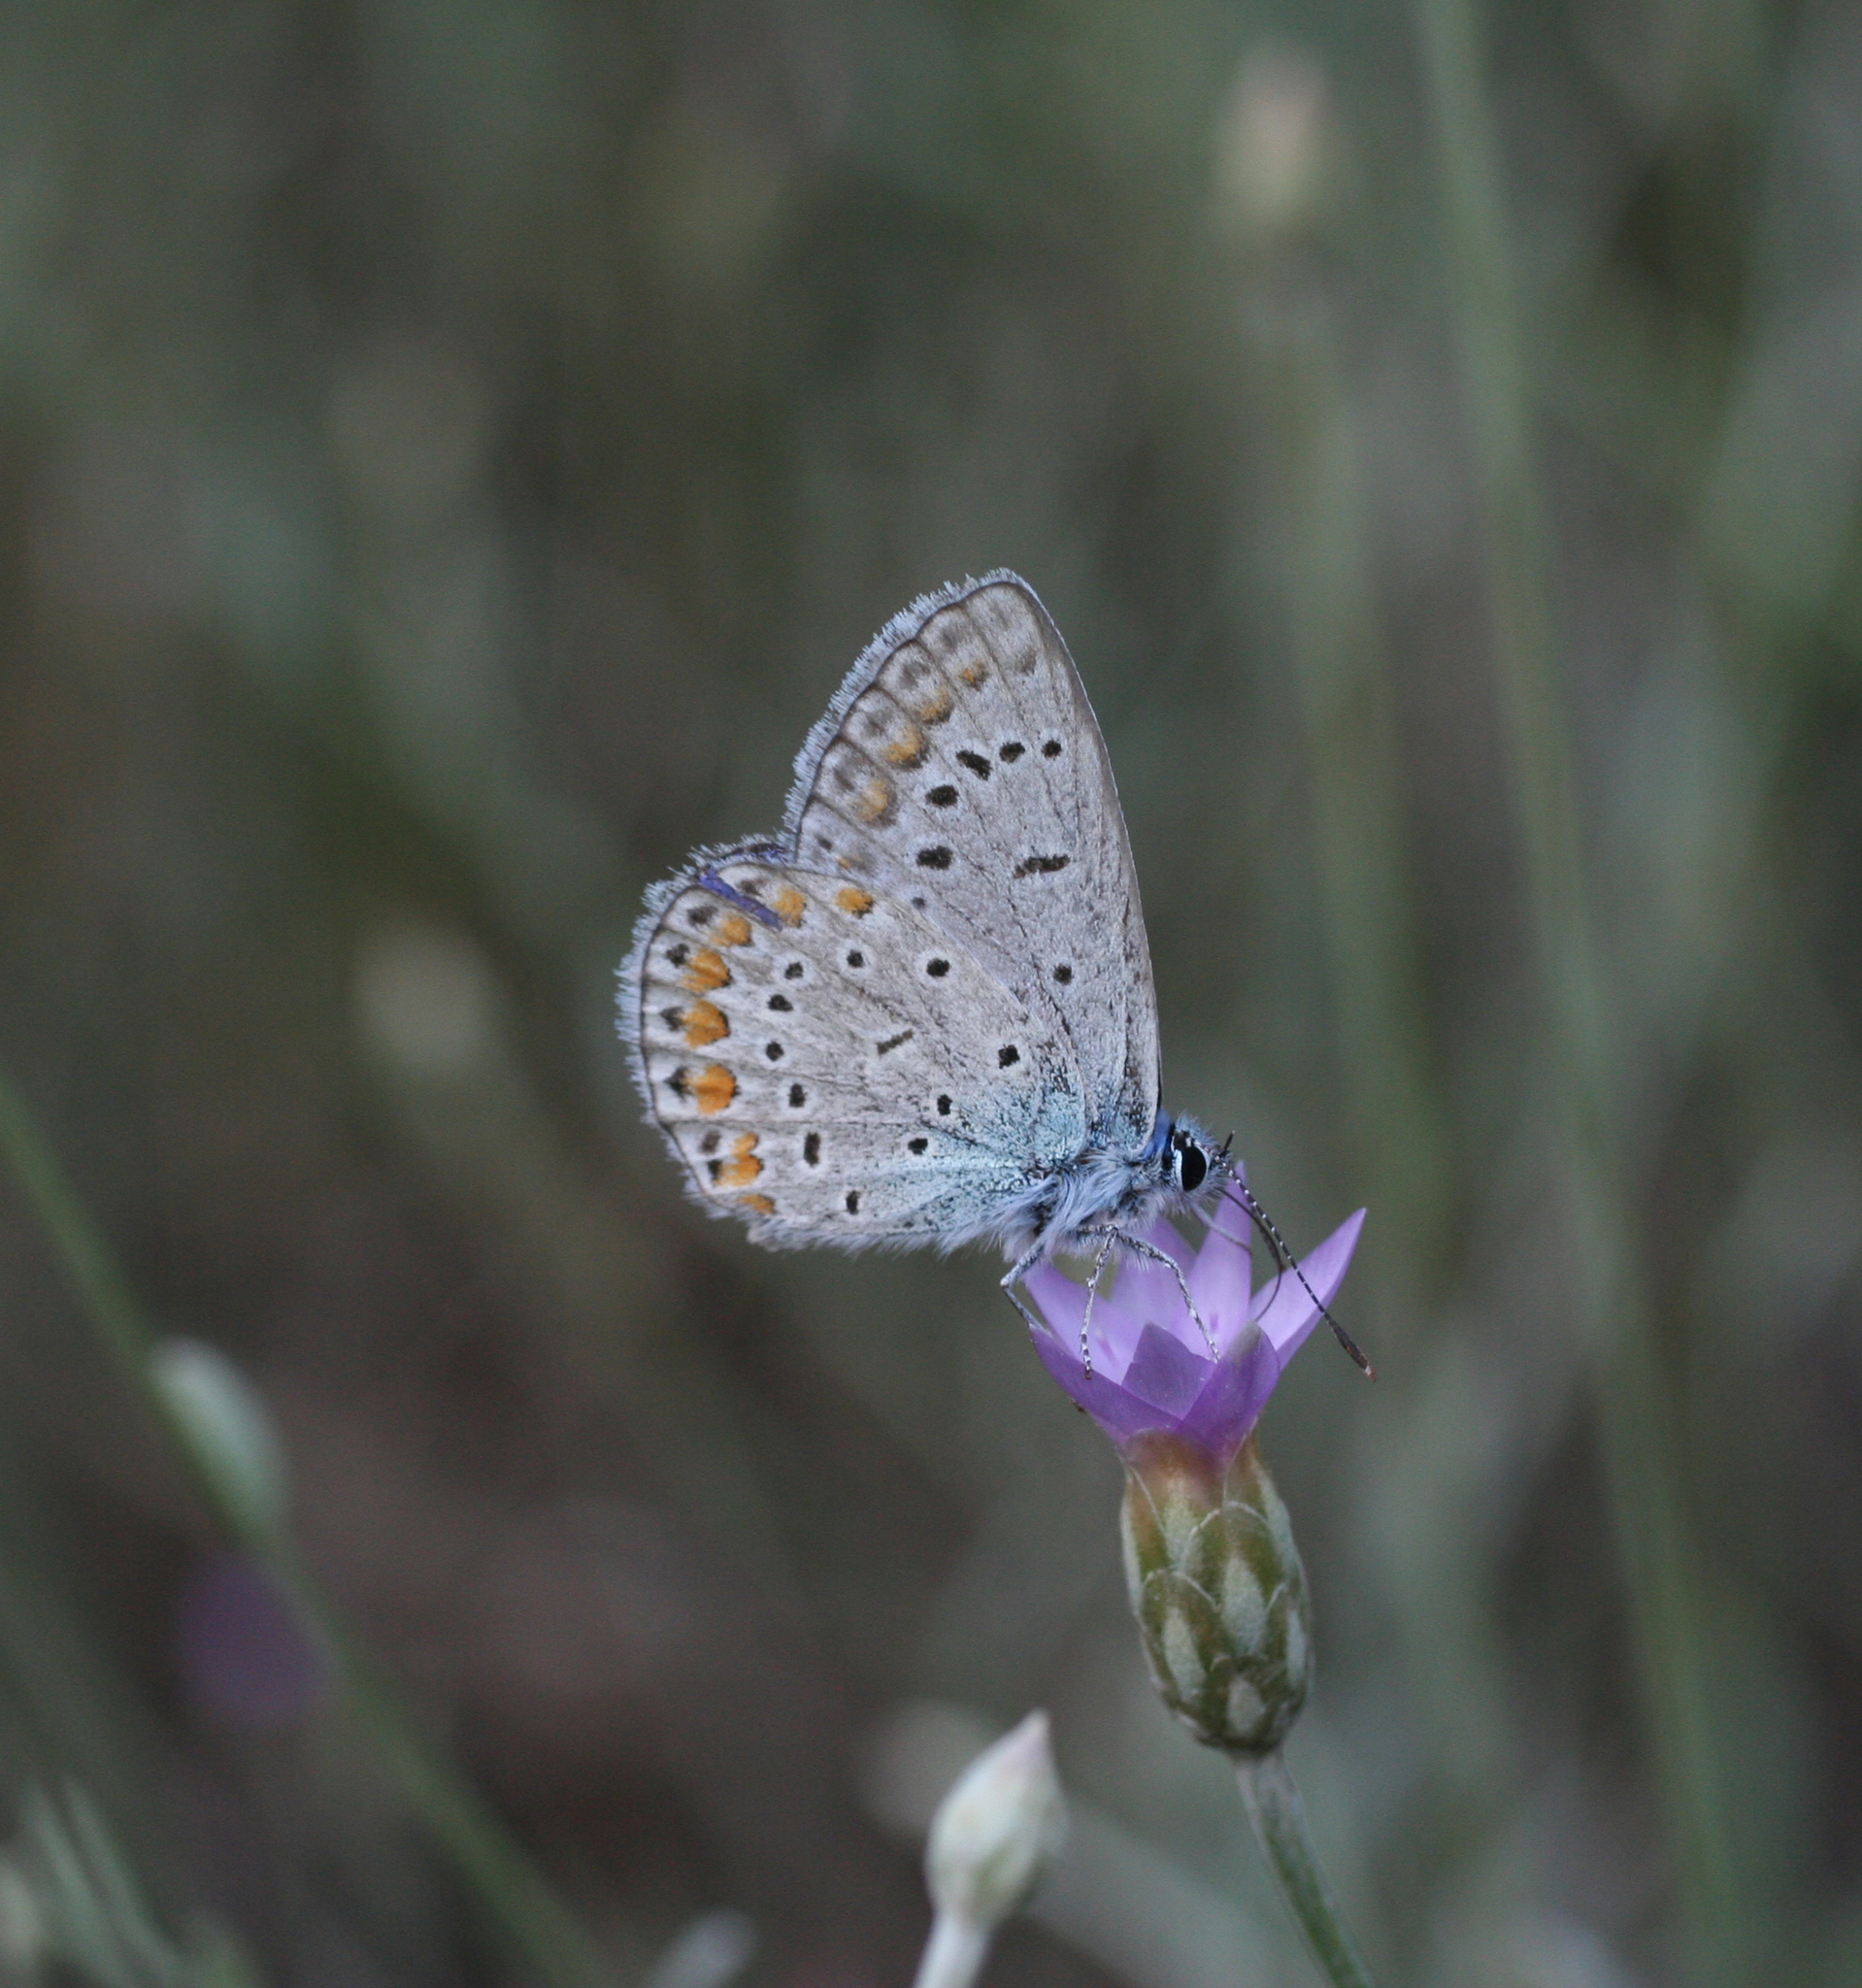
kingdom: Animalia
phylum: Arthropoda
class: Insecta
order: Lepidoptera
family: Lycaenidae
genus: Polyommatus
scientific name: Polyommatus icarus
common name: Common blue
